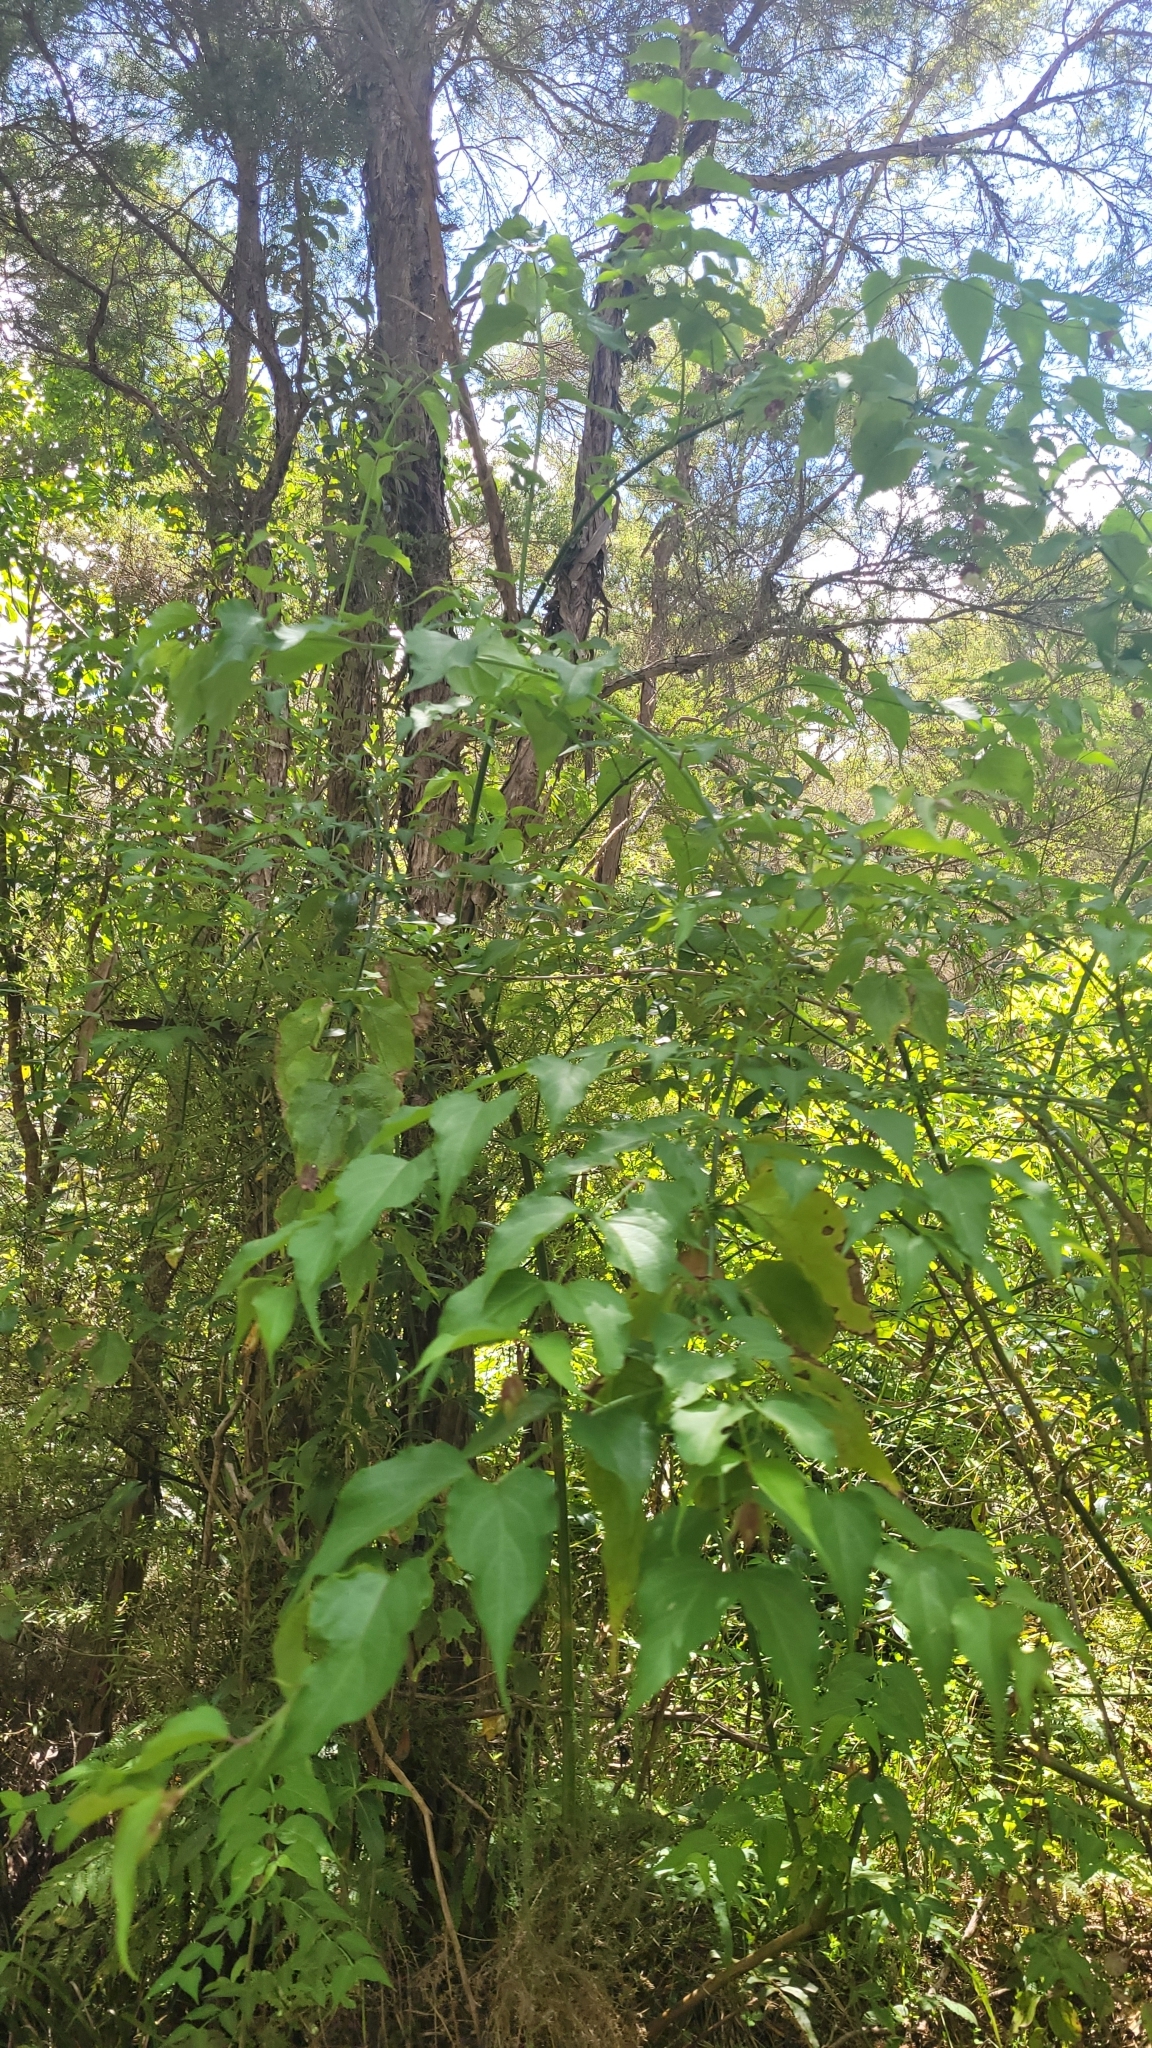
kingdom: Plantae
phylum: Tracheophyta
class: Magnoliopsida
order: Dipsacales
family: Caprifoliaceae
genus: Leycesteria
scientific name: Leycesteria formosa
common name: Himalayan honeysuckle
